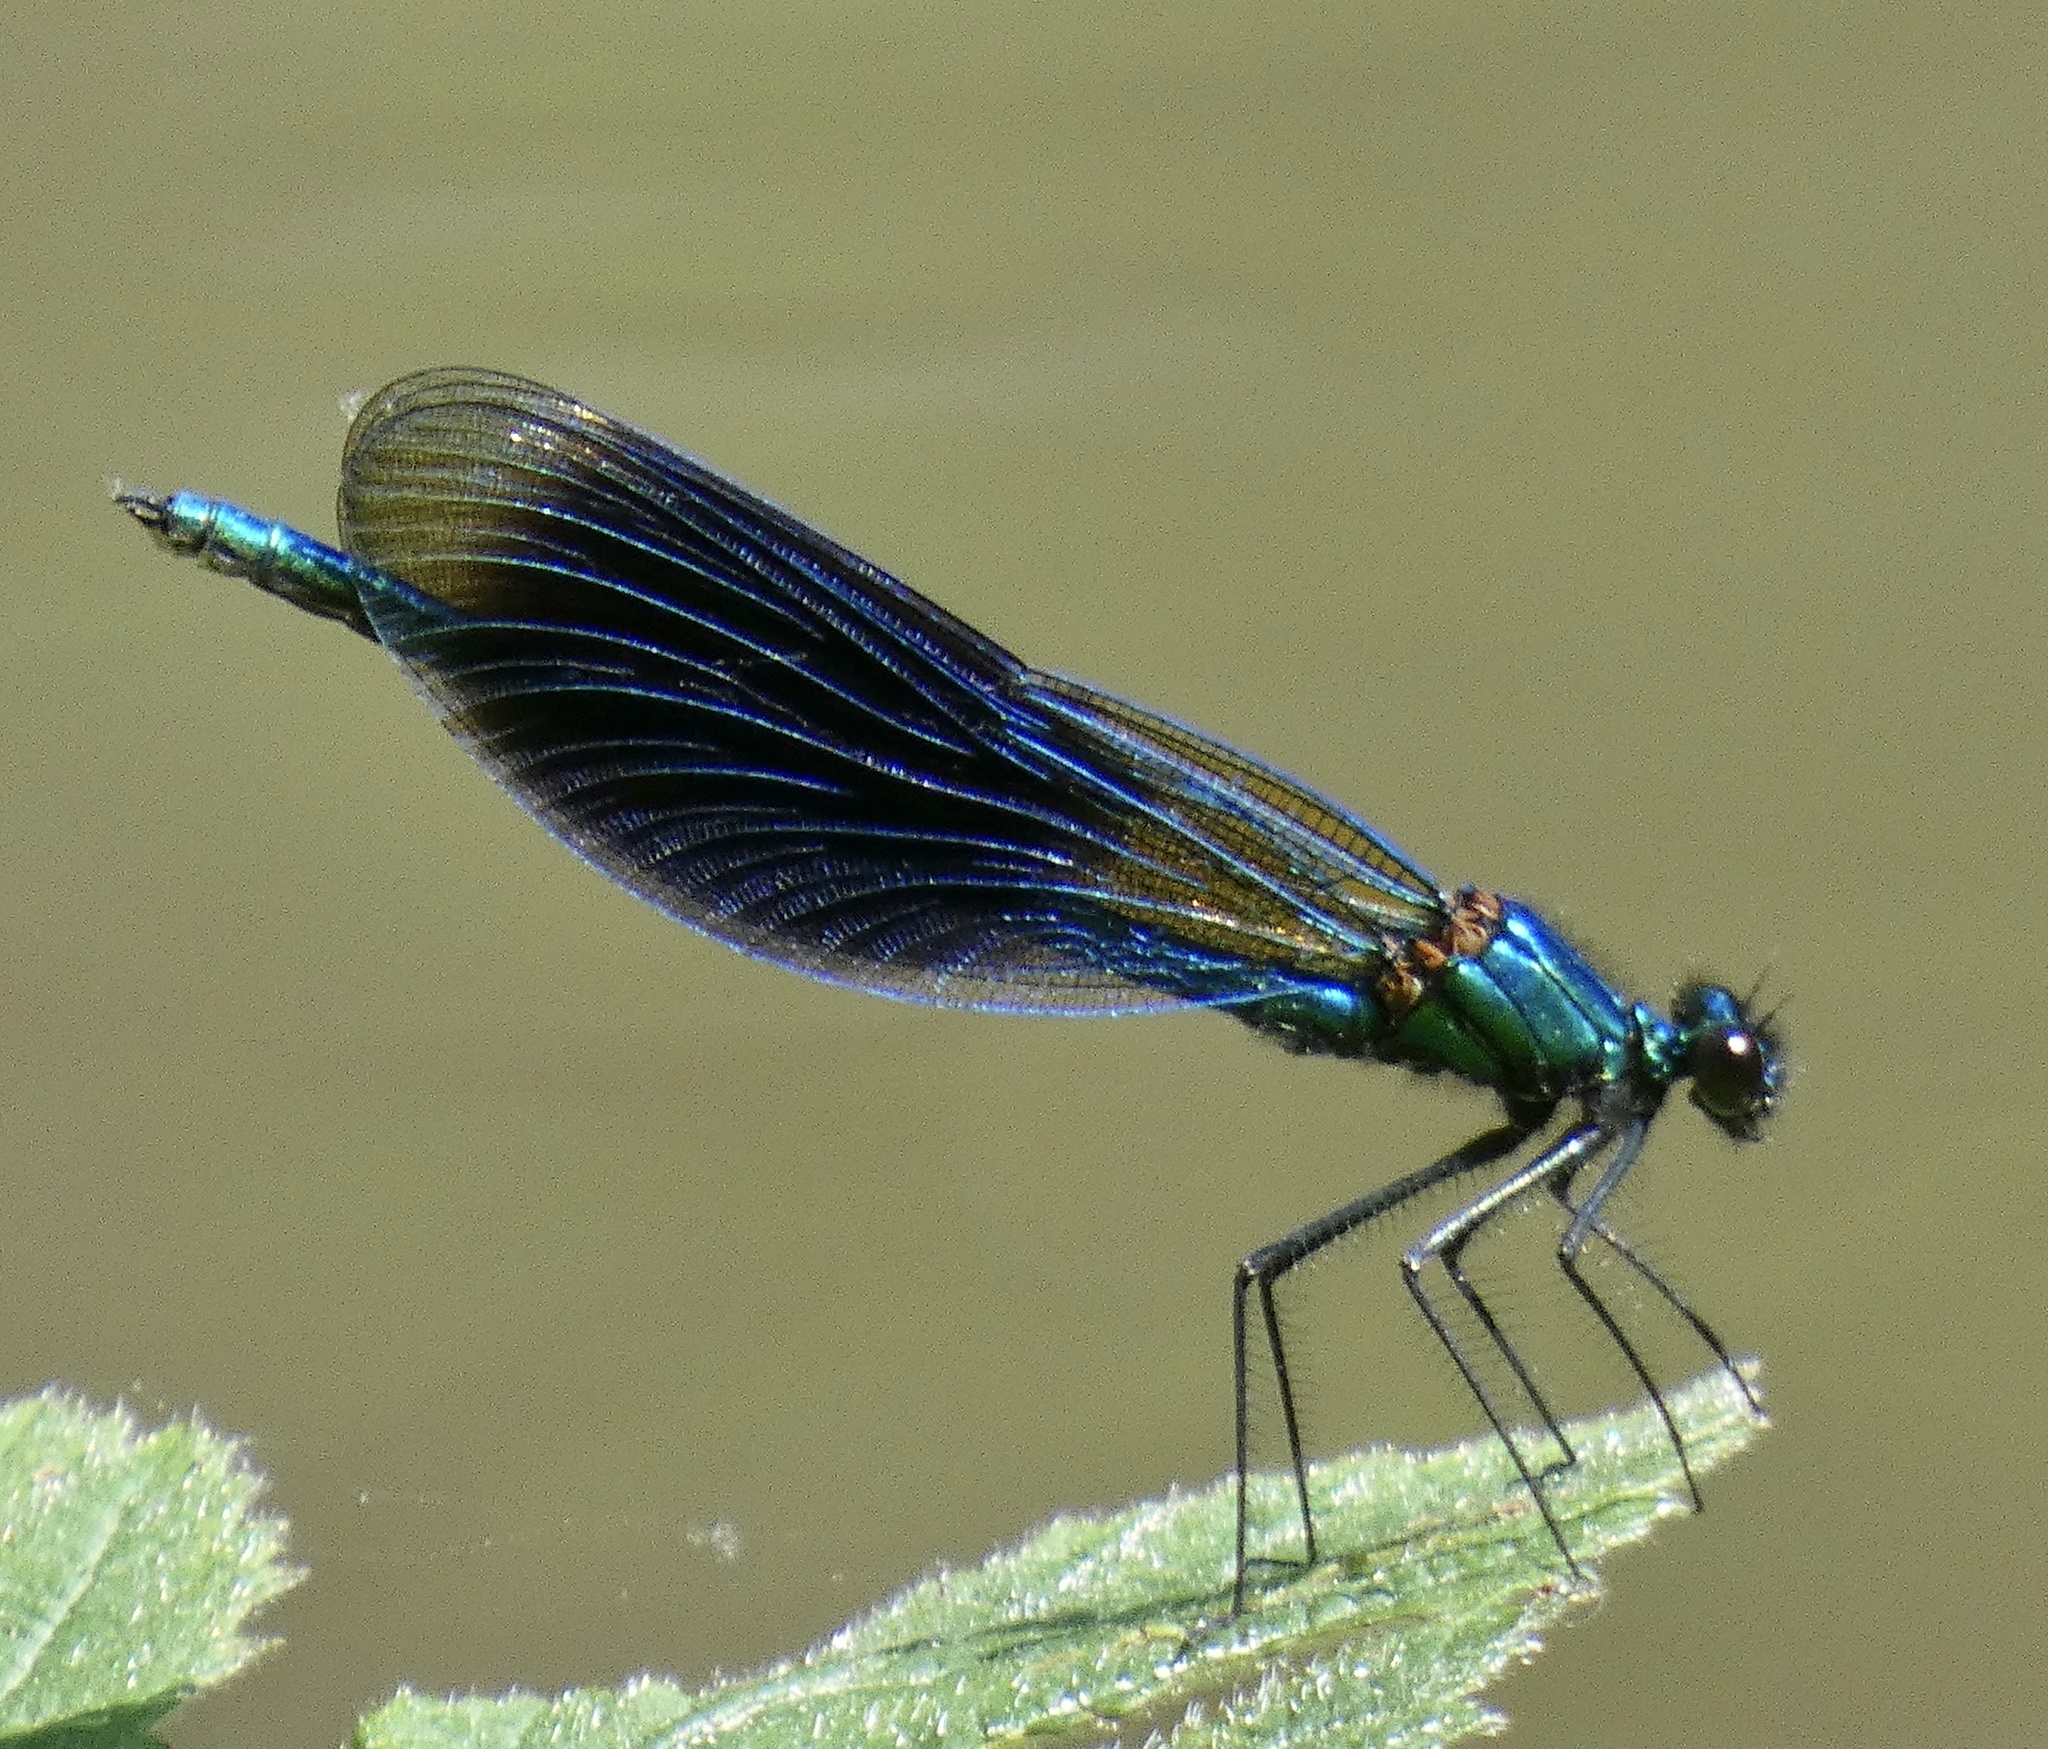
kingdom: Animalia
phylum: Arthropoda
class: Insecta
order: Odonata
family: Calopterygidae
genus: Calopteryx
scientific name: Calopteryx splendens
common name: Banded demoiselle
